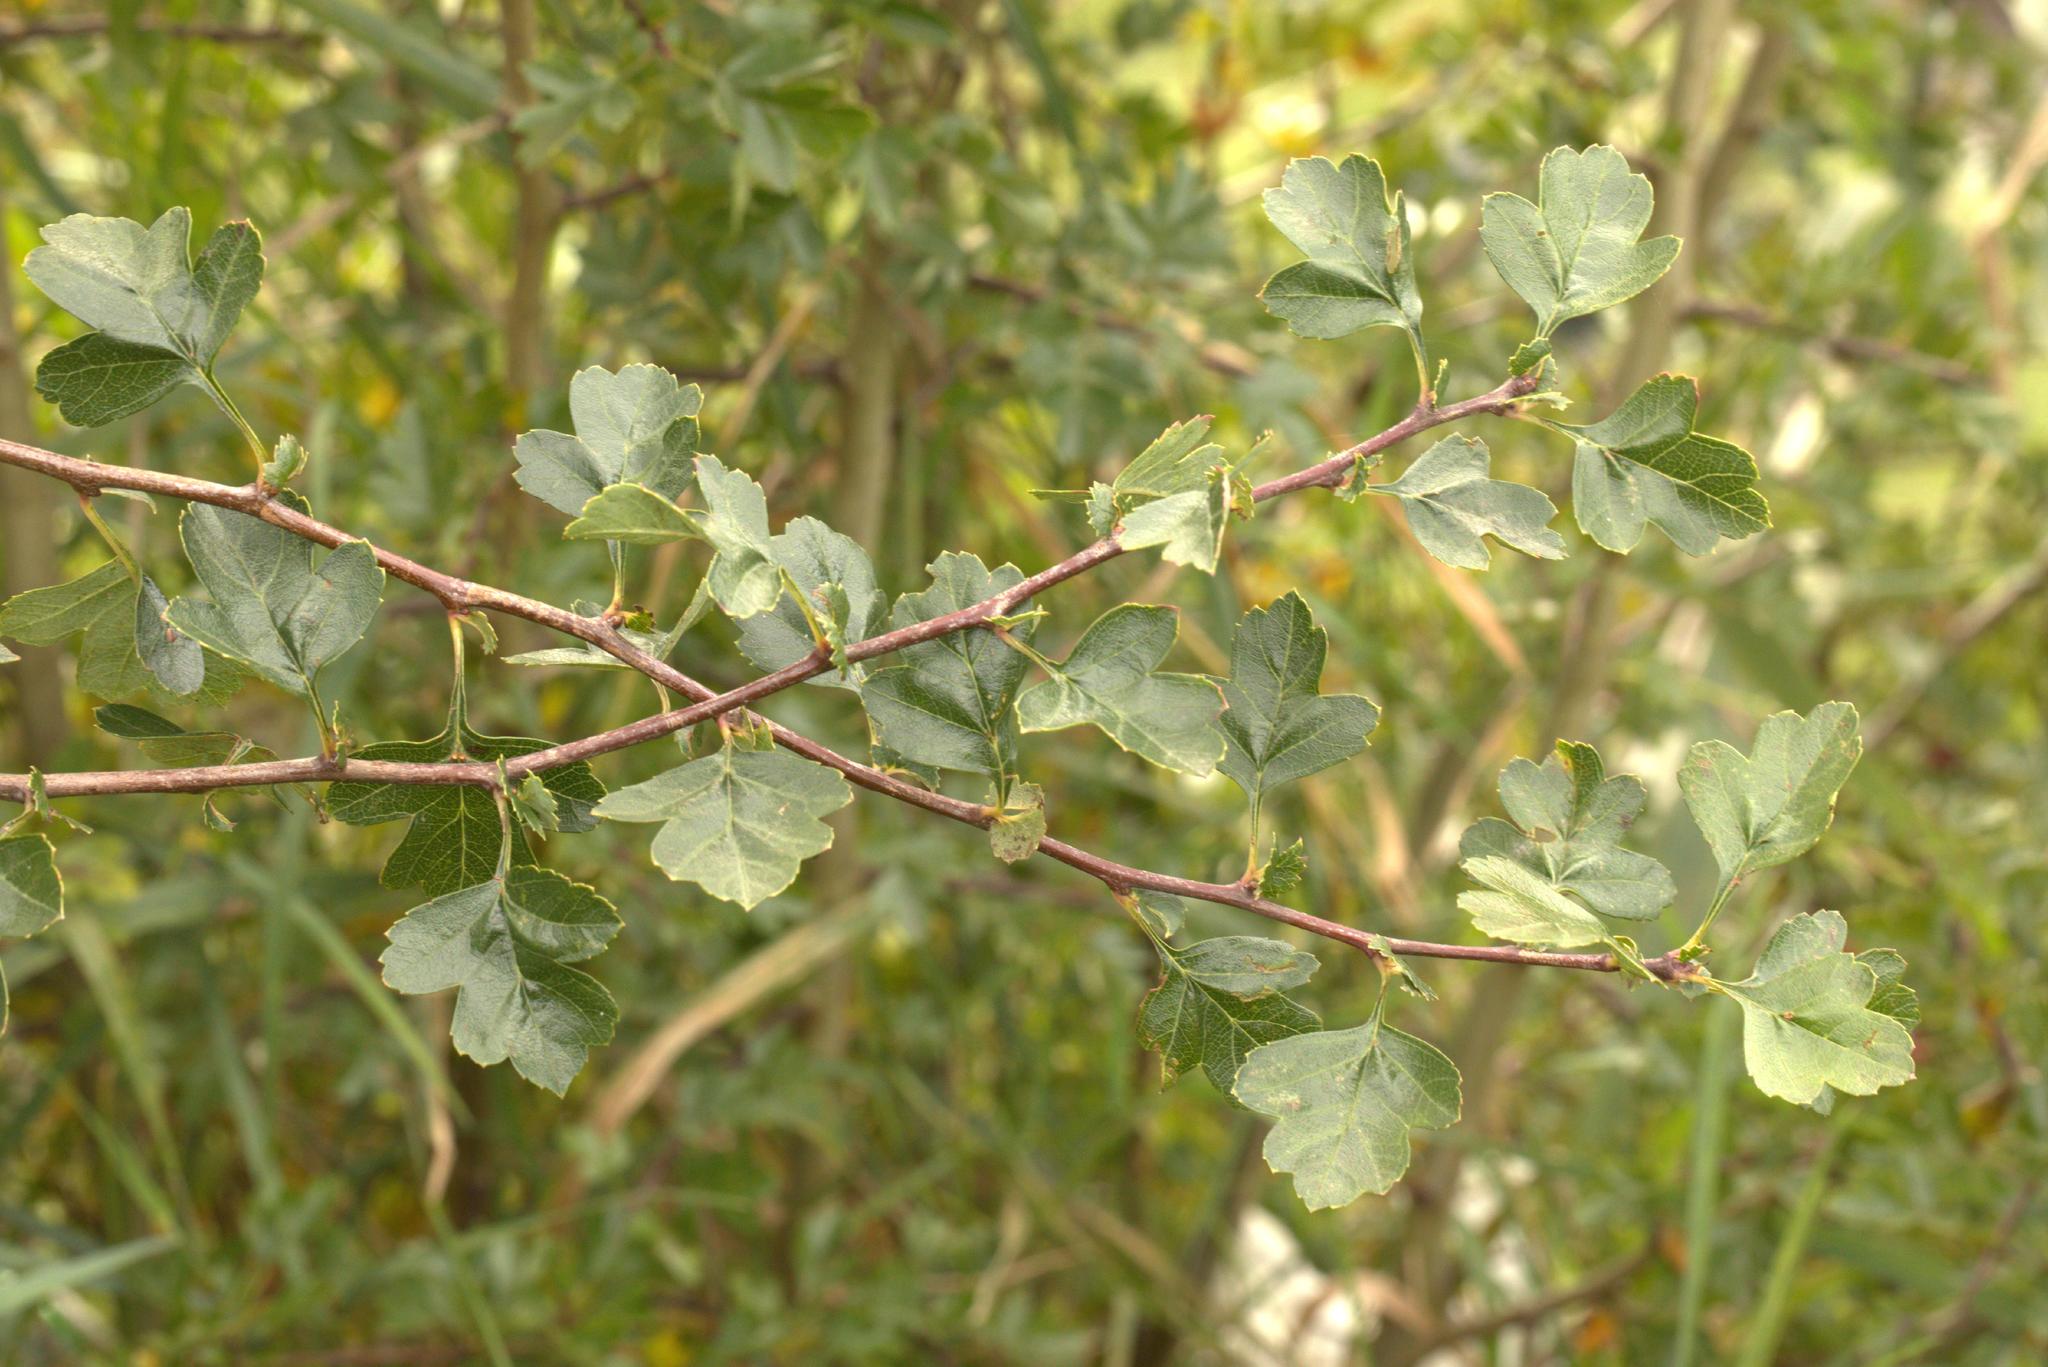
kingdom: Plantae
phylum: Tracheophyta
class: Magnoliopsida
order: Rosales
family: Rosaceae
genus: Crataegus
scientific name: Crataegus monogyna
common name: Hawthorn
